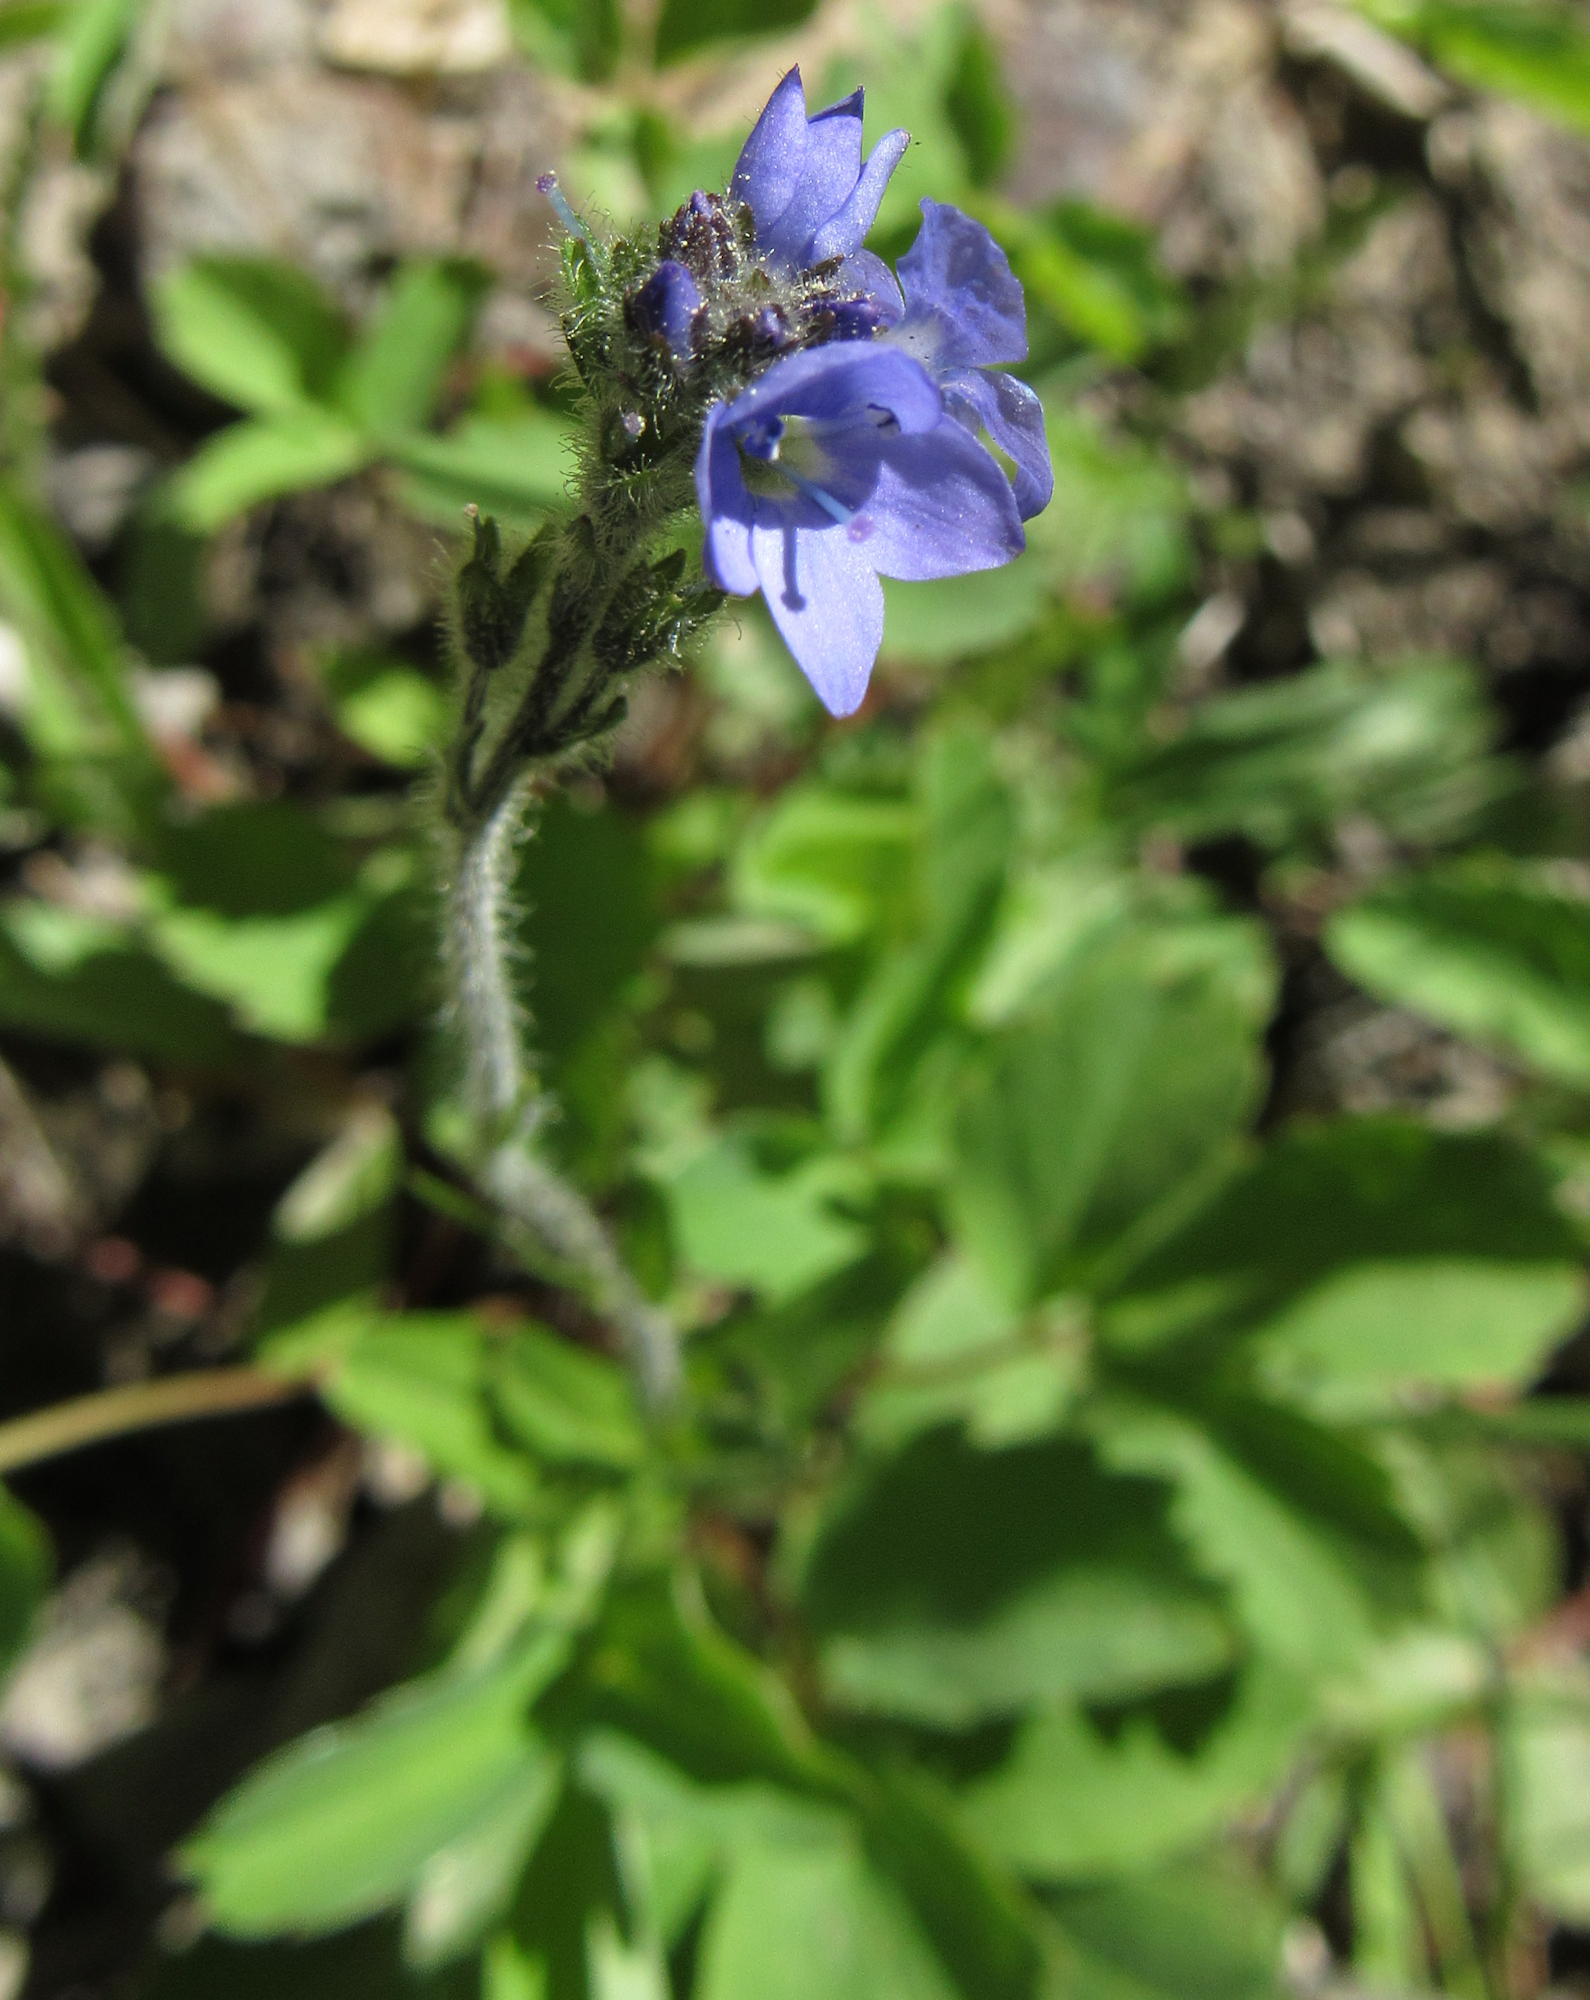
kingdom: Plantae
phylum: Tracheophyta
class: Magnoliopsida
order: Lamiales
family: Plantaginaceae
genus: Veronica
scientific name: Veronica wormskjoldii
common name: American alpine speedwell
